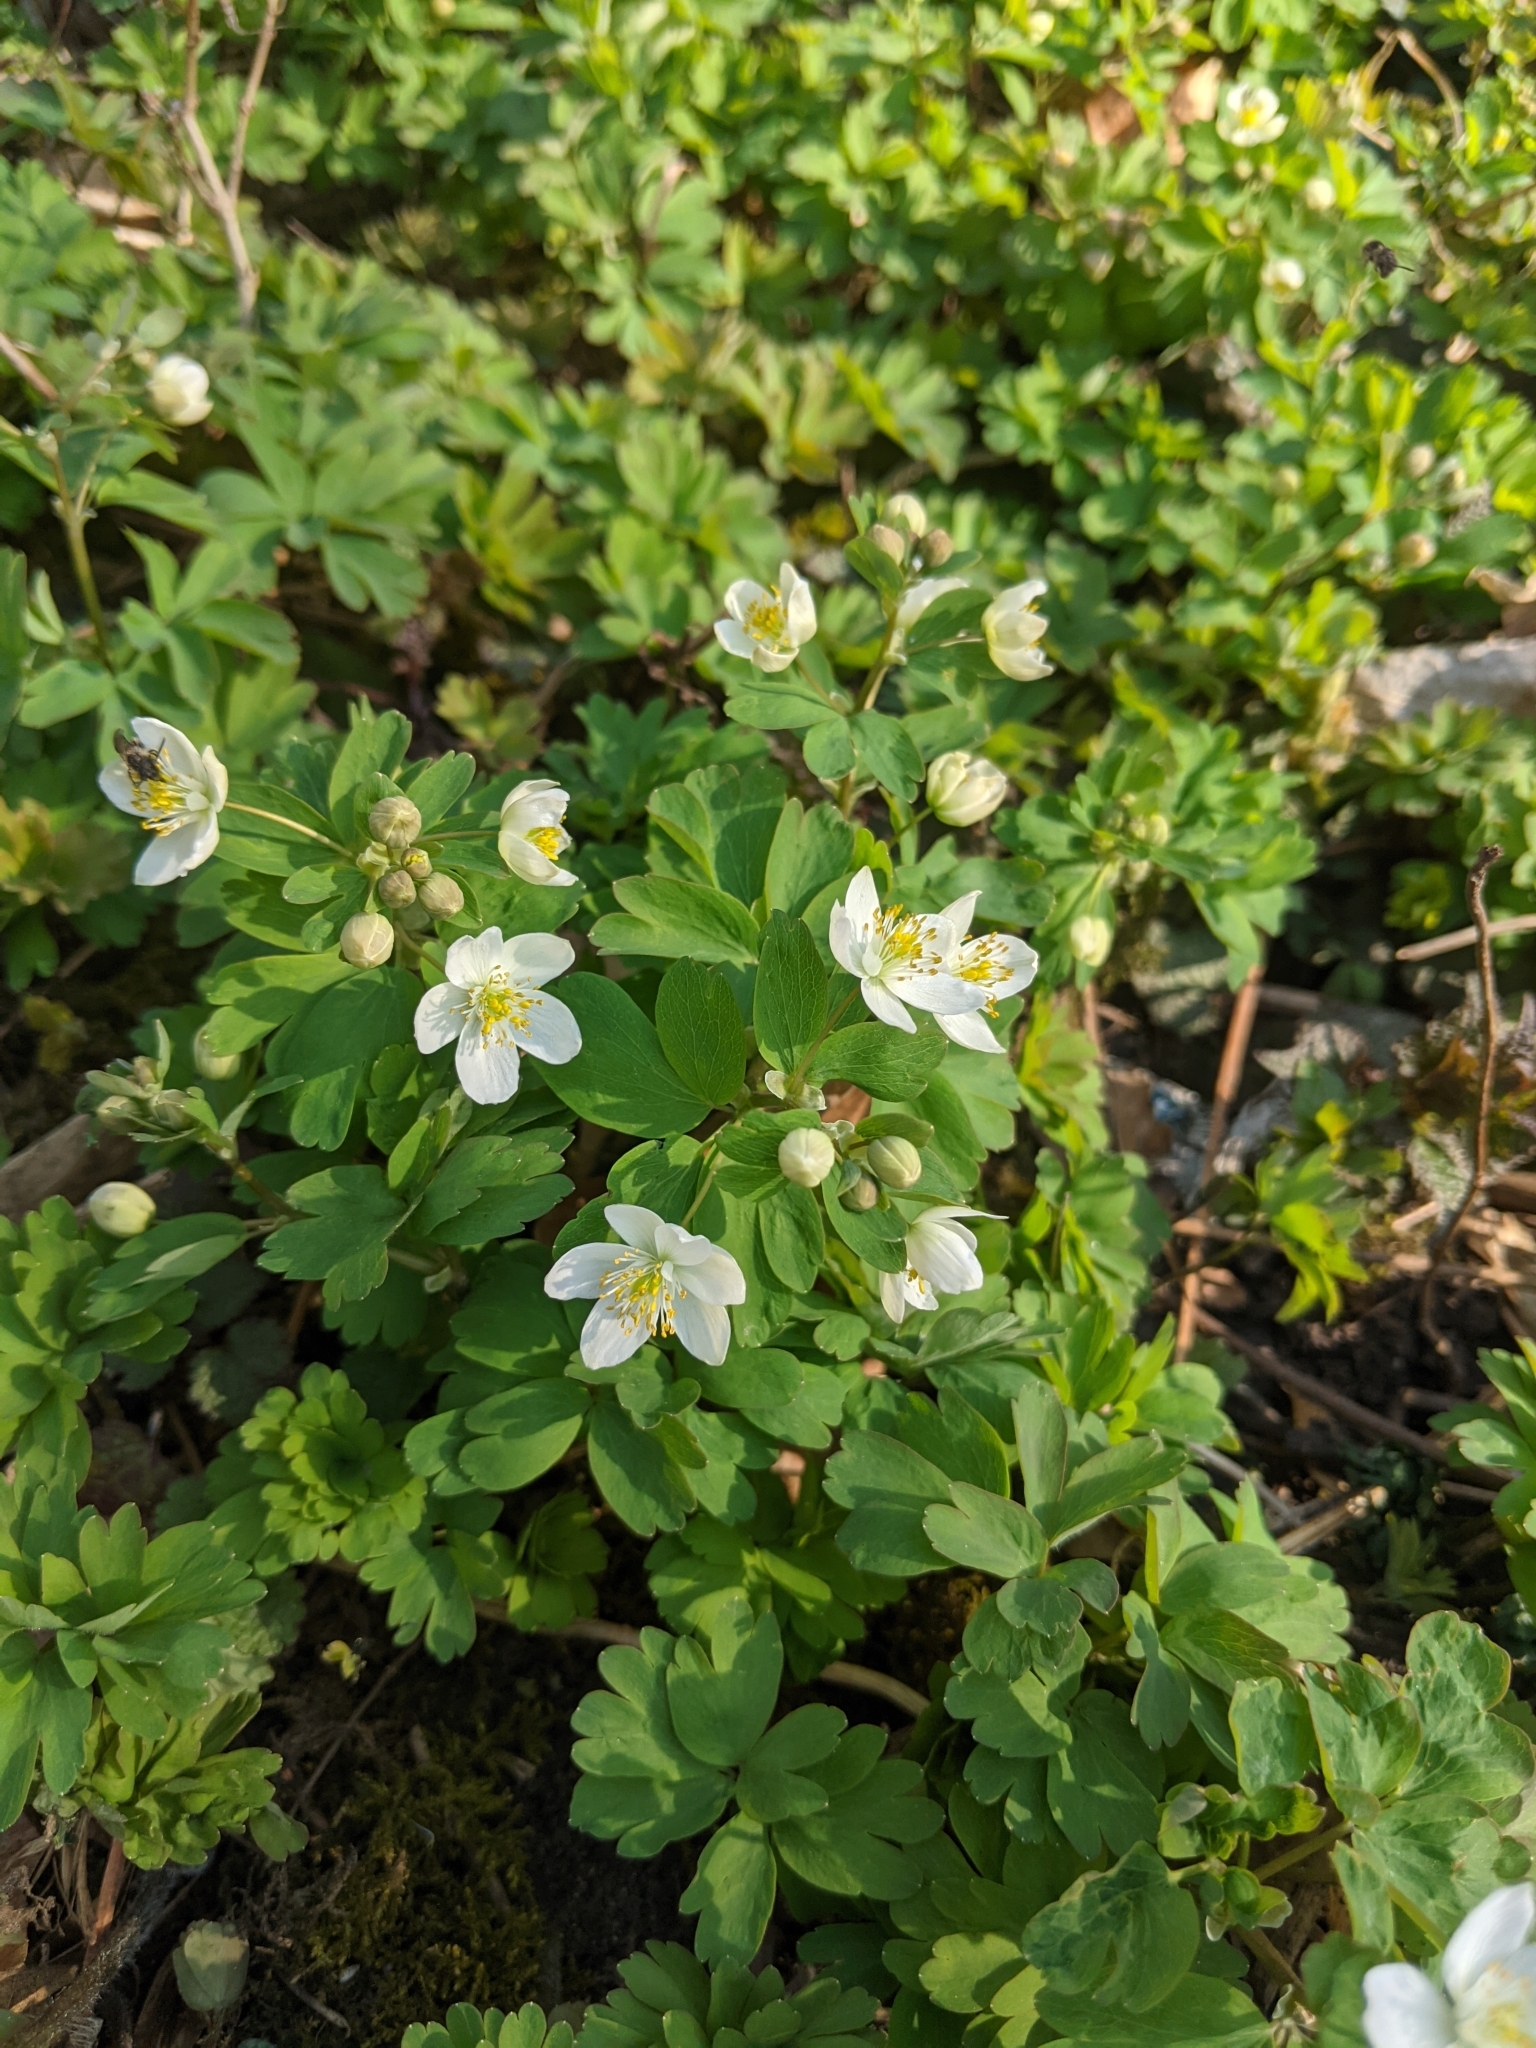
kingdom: Plantae
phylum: Tracheophyta
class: Magnoliopsida
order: Ranunculales
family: Ranunculaceae
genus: Isopyrum
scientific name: Isopyrum thalictroides
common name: Isopyrum
